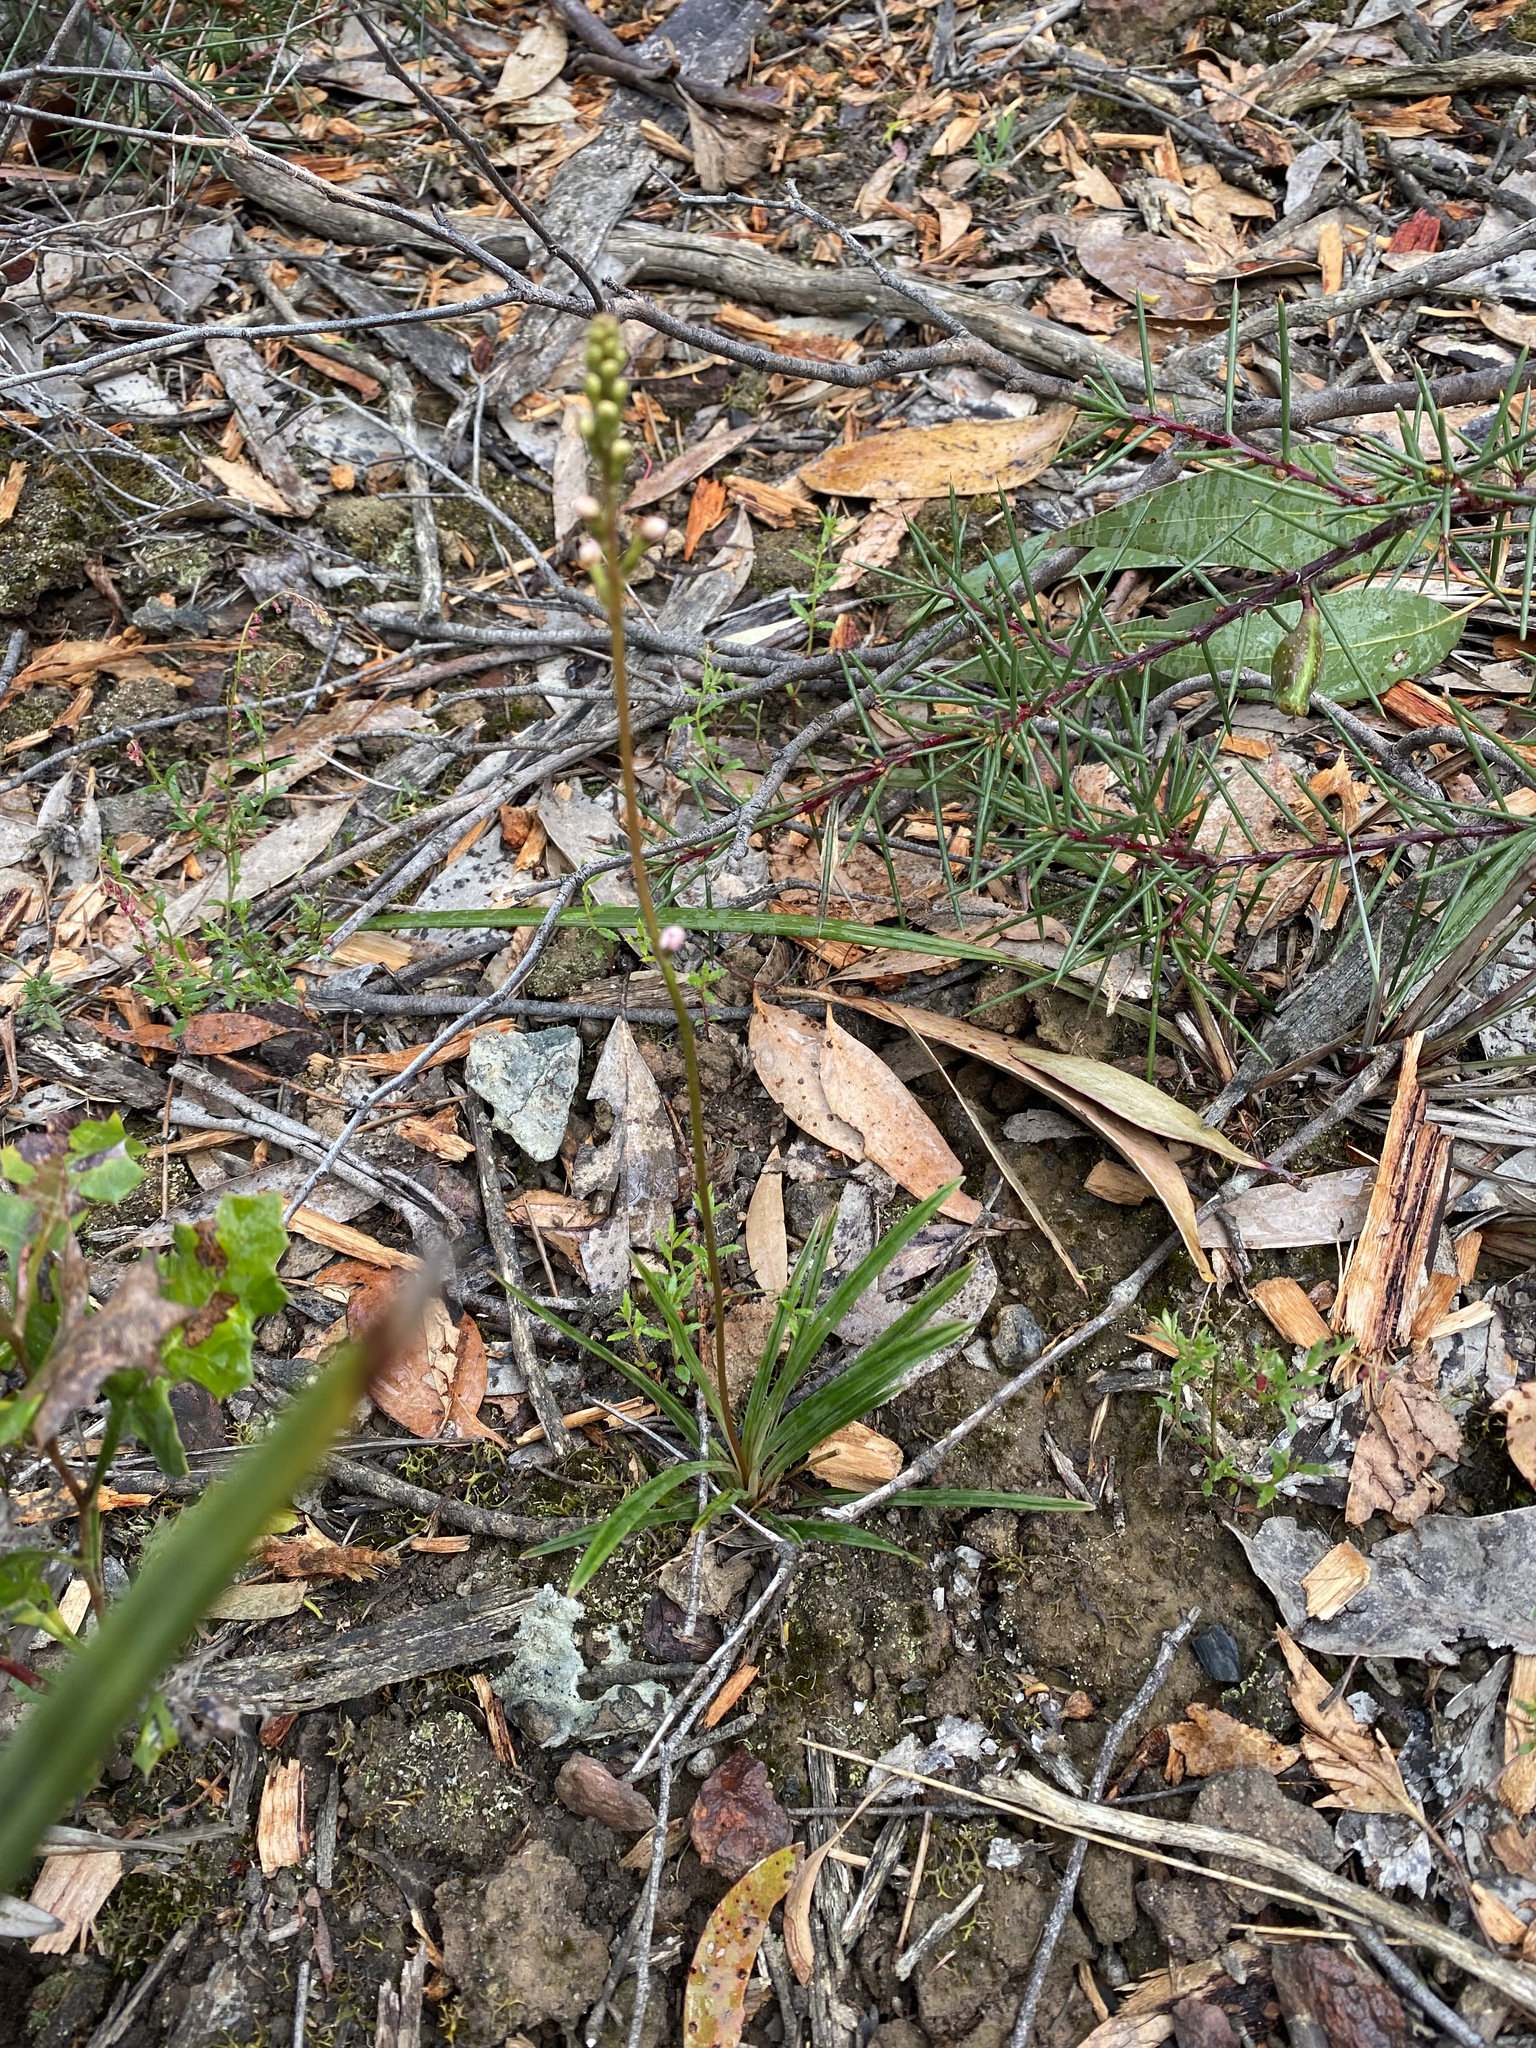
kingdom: Plantae
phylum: Tracheophyta
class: Magnoliopsida
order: Asterales
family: Stylidiaceae
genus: Stylidium
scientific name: Stylidium armeria
